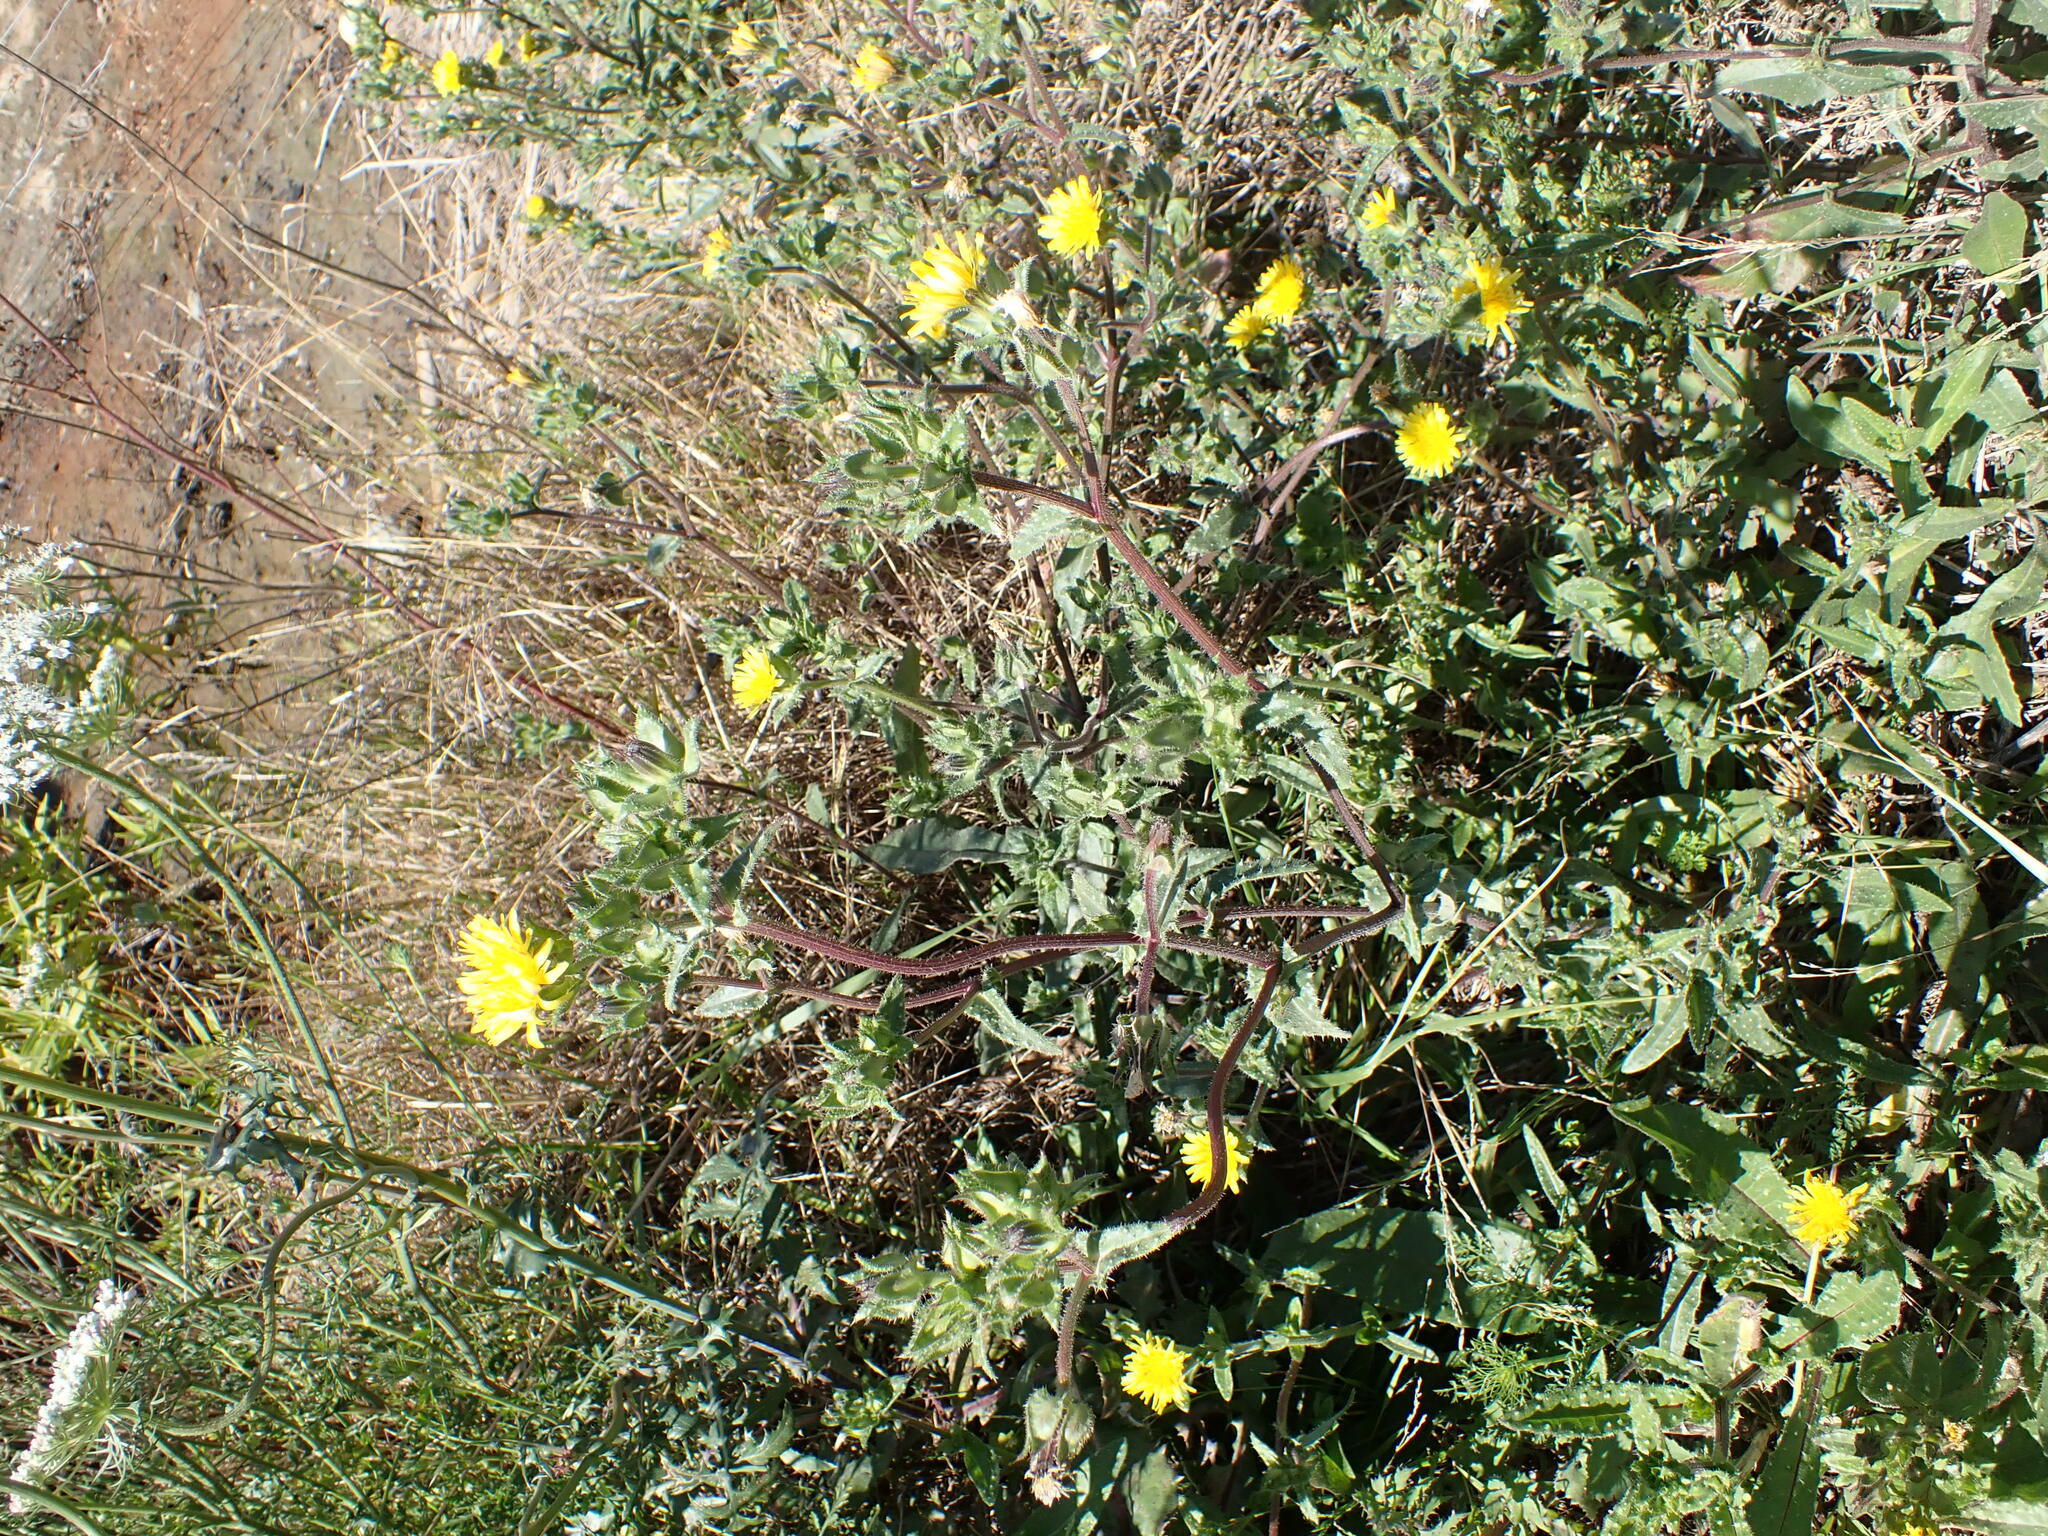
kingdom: Plantae
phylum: Tracheophyta
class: Magnoliopsida
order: Asterales
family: Asteraceae
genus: Helminthotheca
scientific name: Helminthotheca echioides
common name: Ox-tongue
